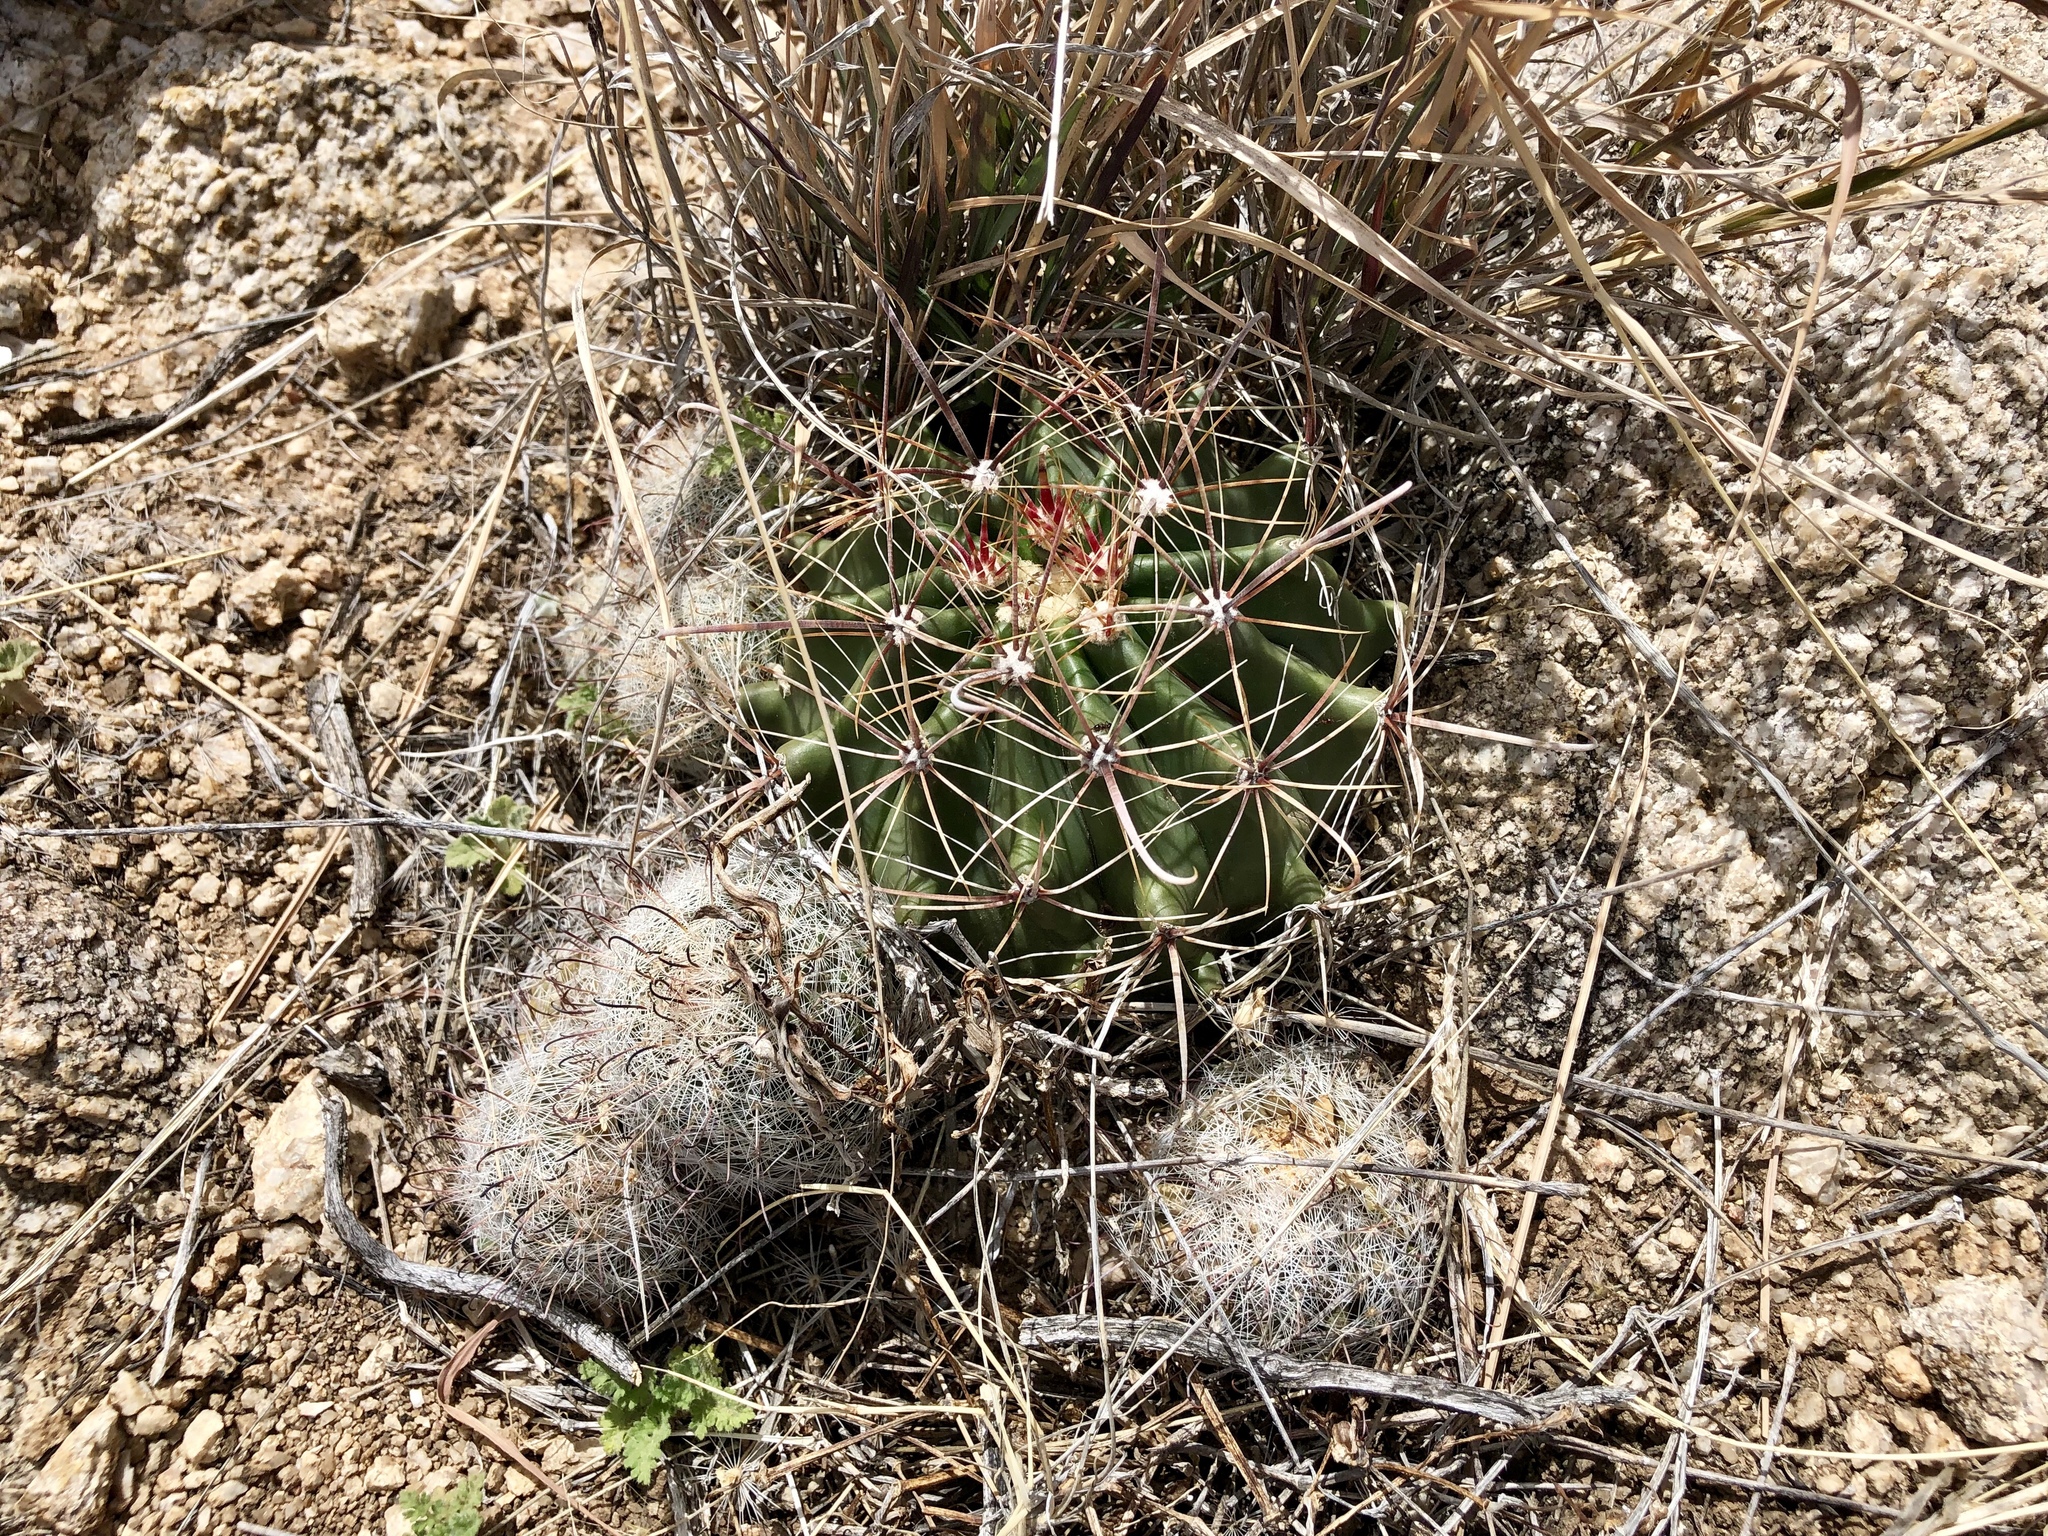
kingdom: Plantae
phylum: Tracheophyta
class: Magnoliopsida
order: Caryophyllales
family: Cactaceae
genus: Cochemiea
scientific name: Cochemiea grahamii
